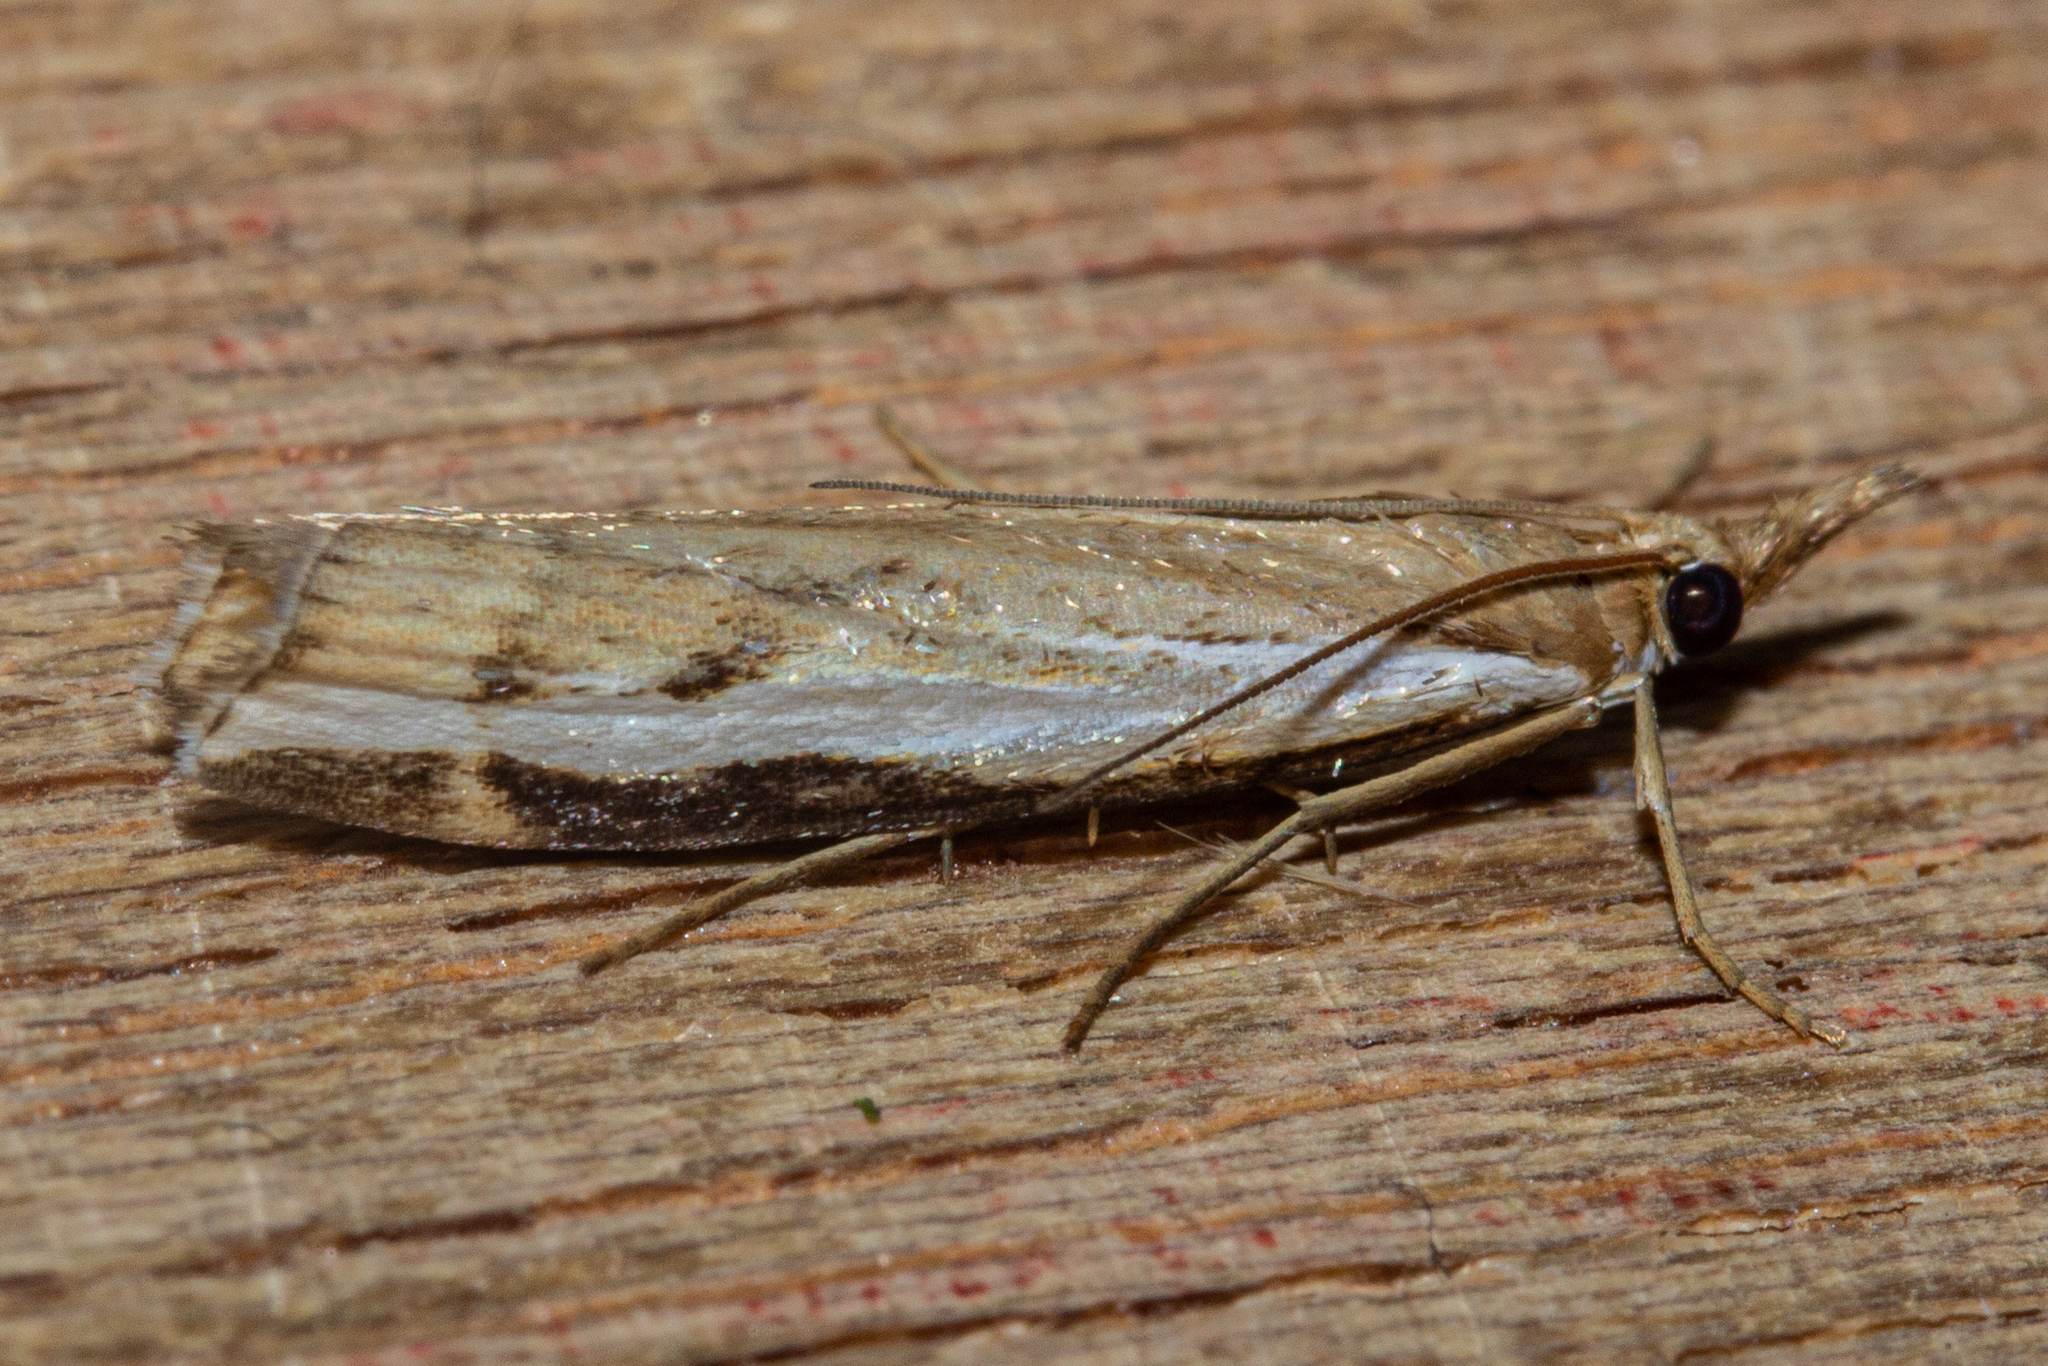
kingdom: Animalia
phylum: Arthropoda
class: Insecta
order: Lepidoptera
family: Crambidae
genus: Orocrambus
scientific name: Orocrambus flexuosellus
